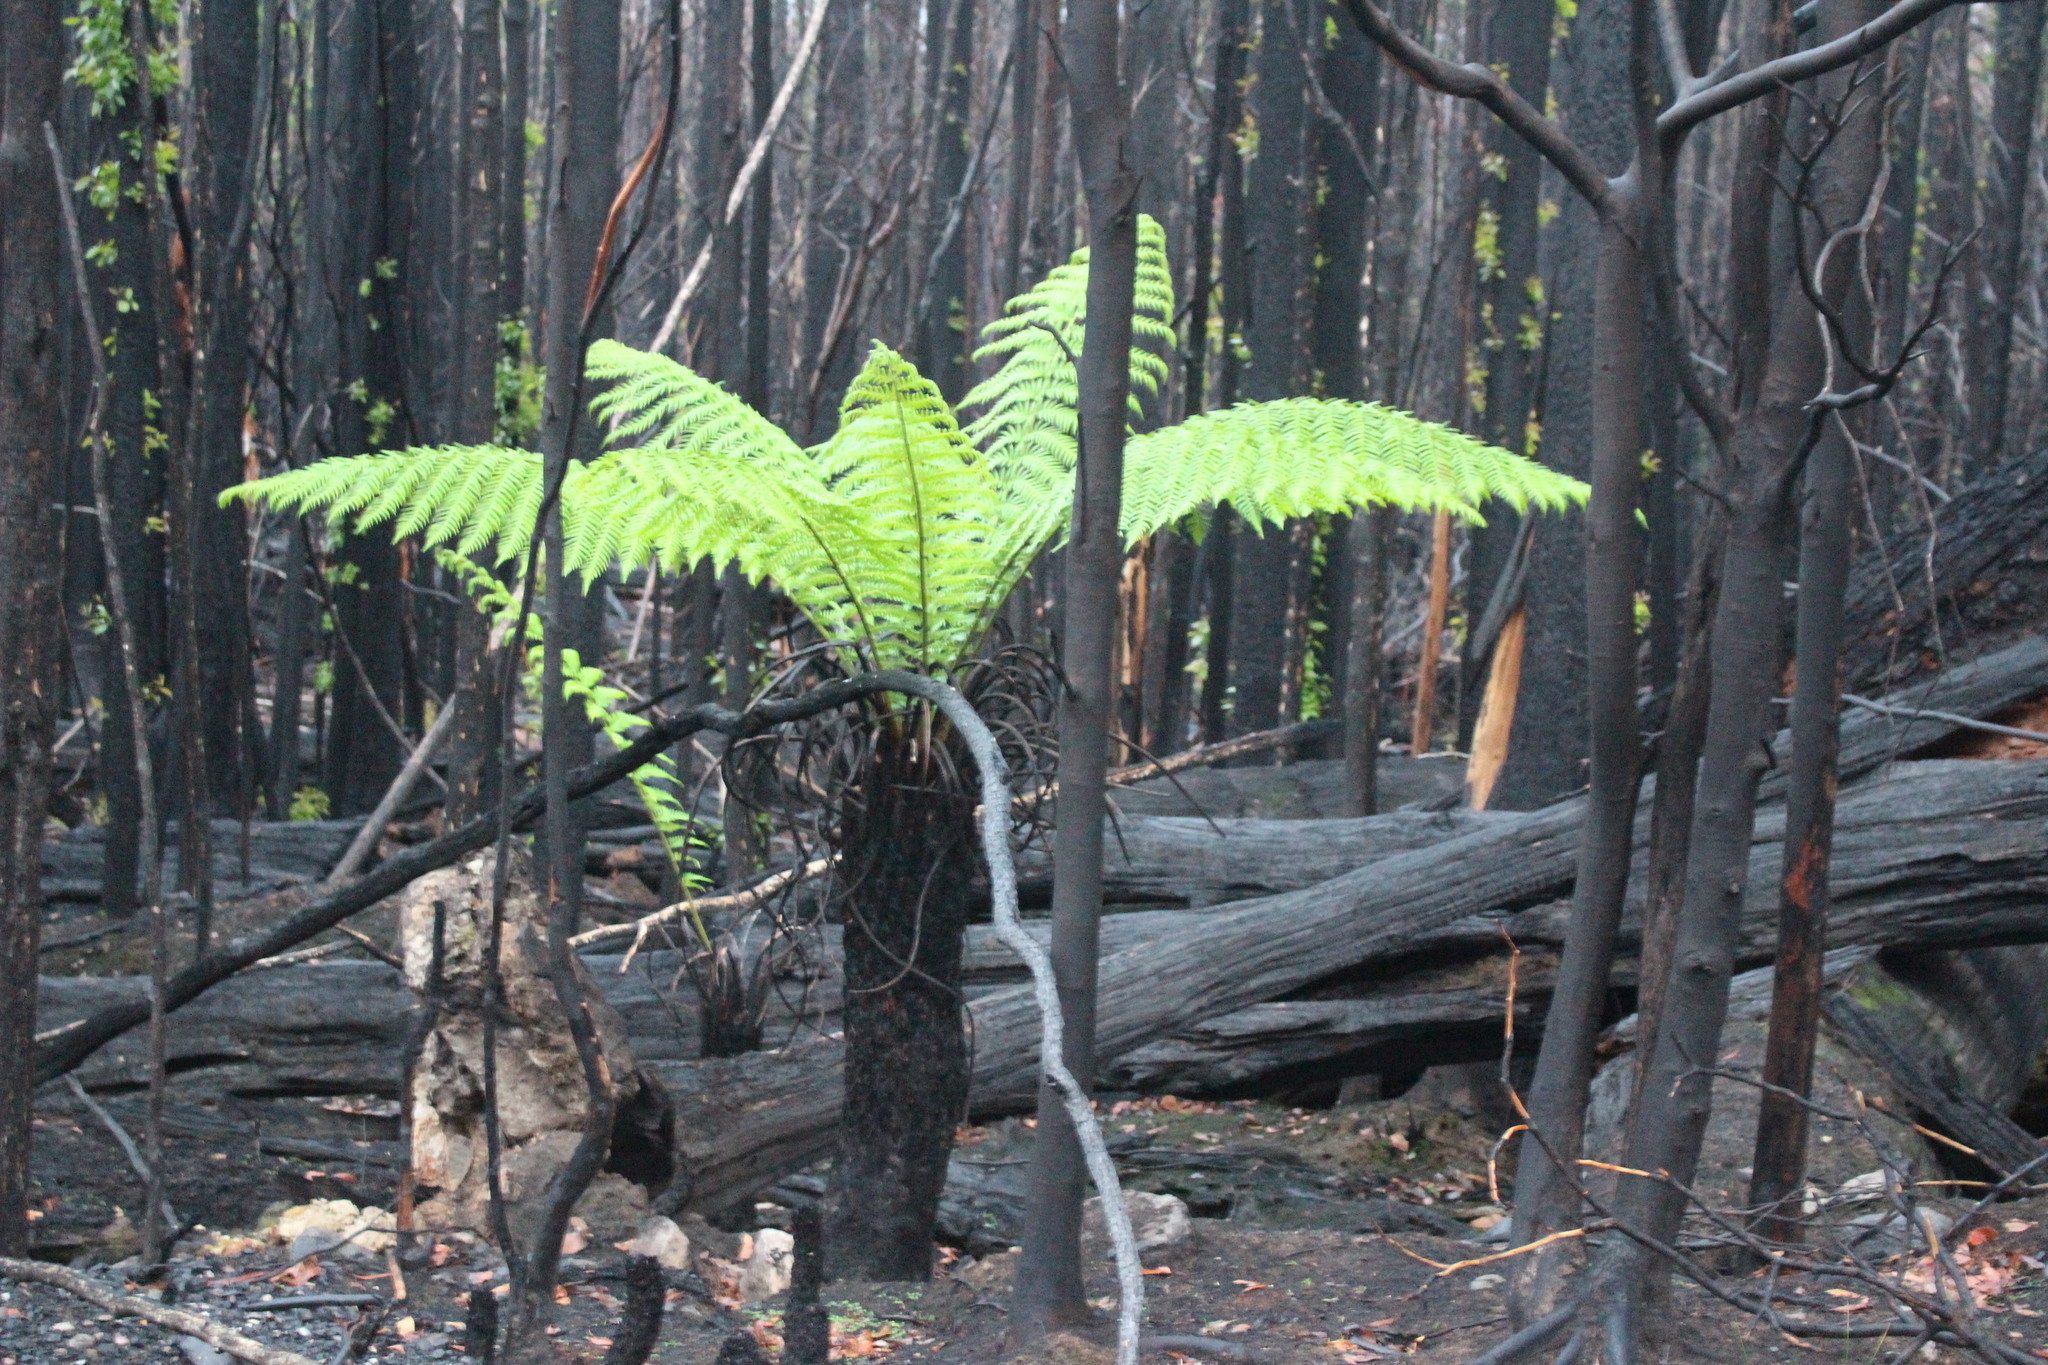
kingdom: Plantae
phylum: Tracheophyta
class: Polypodiopsida
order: Cyatheales
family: Dicksoniaceae
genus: Dicksonia
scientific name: Dicksonia antarctica
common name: Australian treefern
